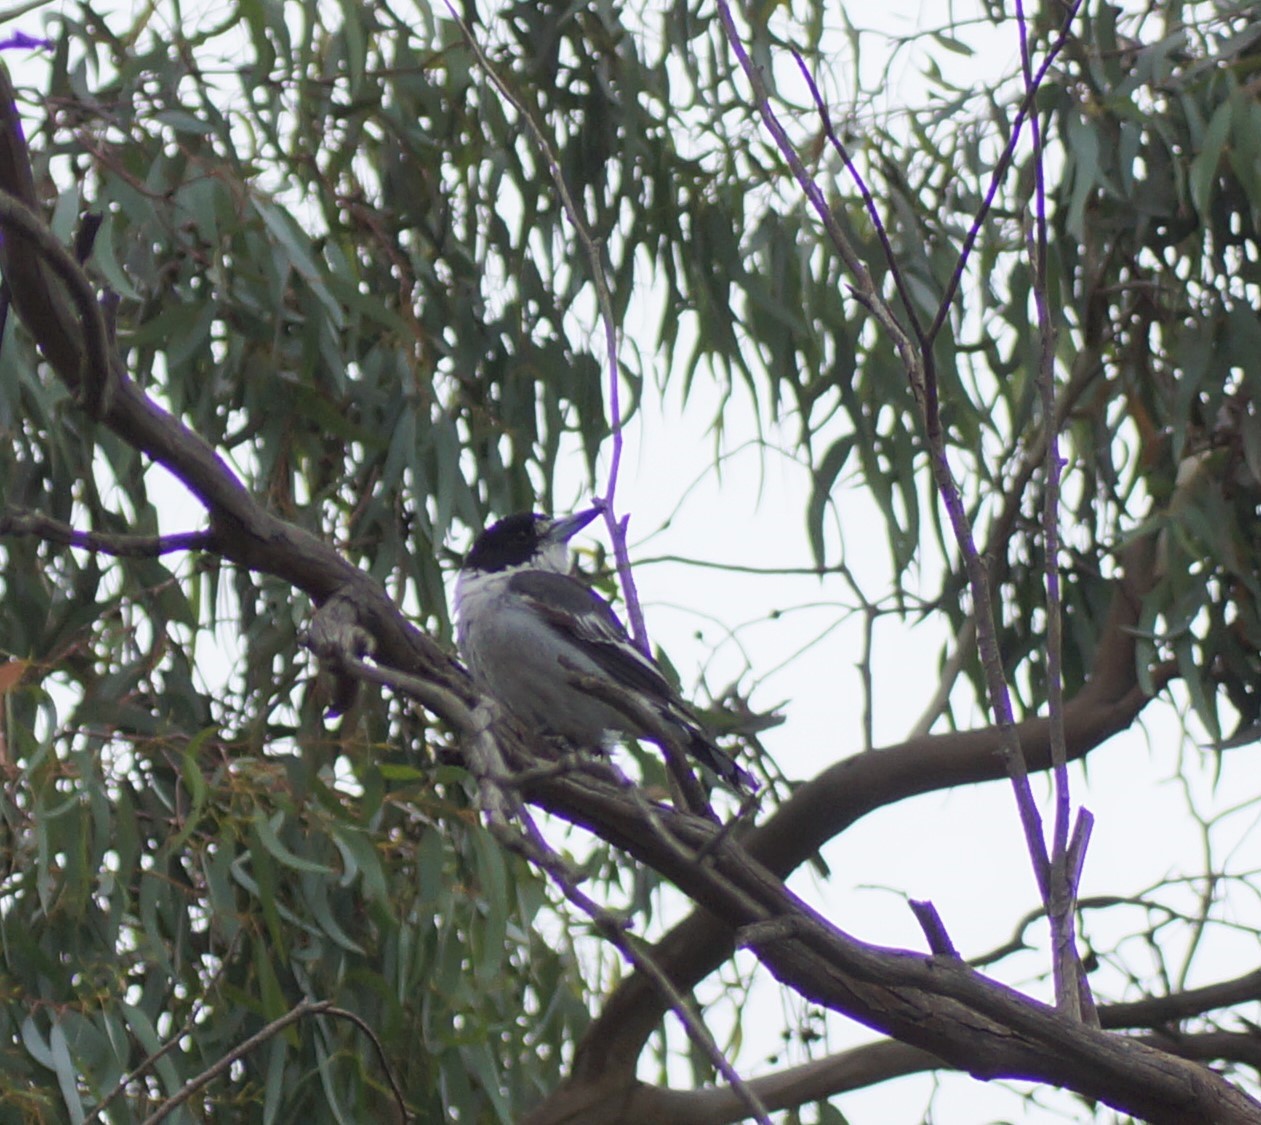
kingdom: Animalia
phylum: Chordata
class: Aves
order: Passeriformes
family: Cracticidae
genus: Cracticus
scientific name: Cracticus torquatus
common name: Grey butcherbird
